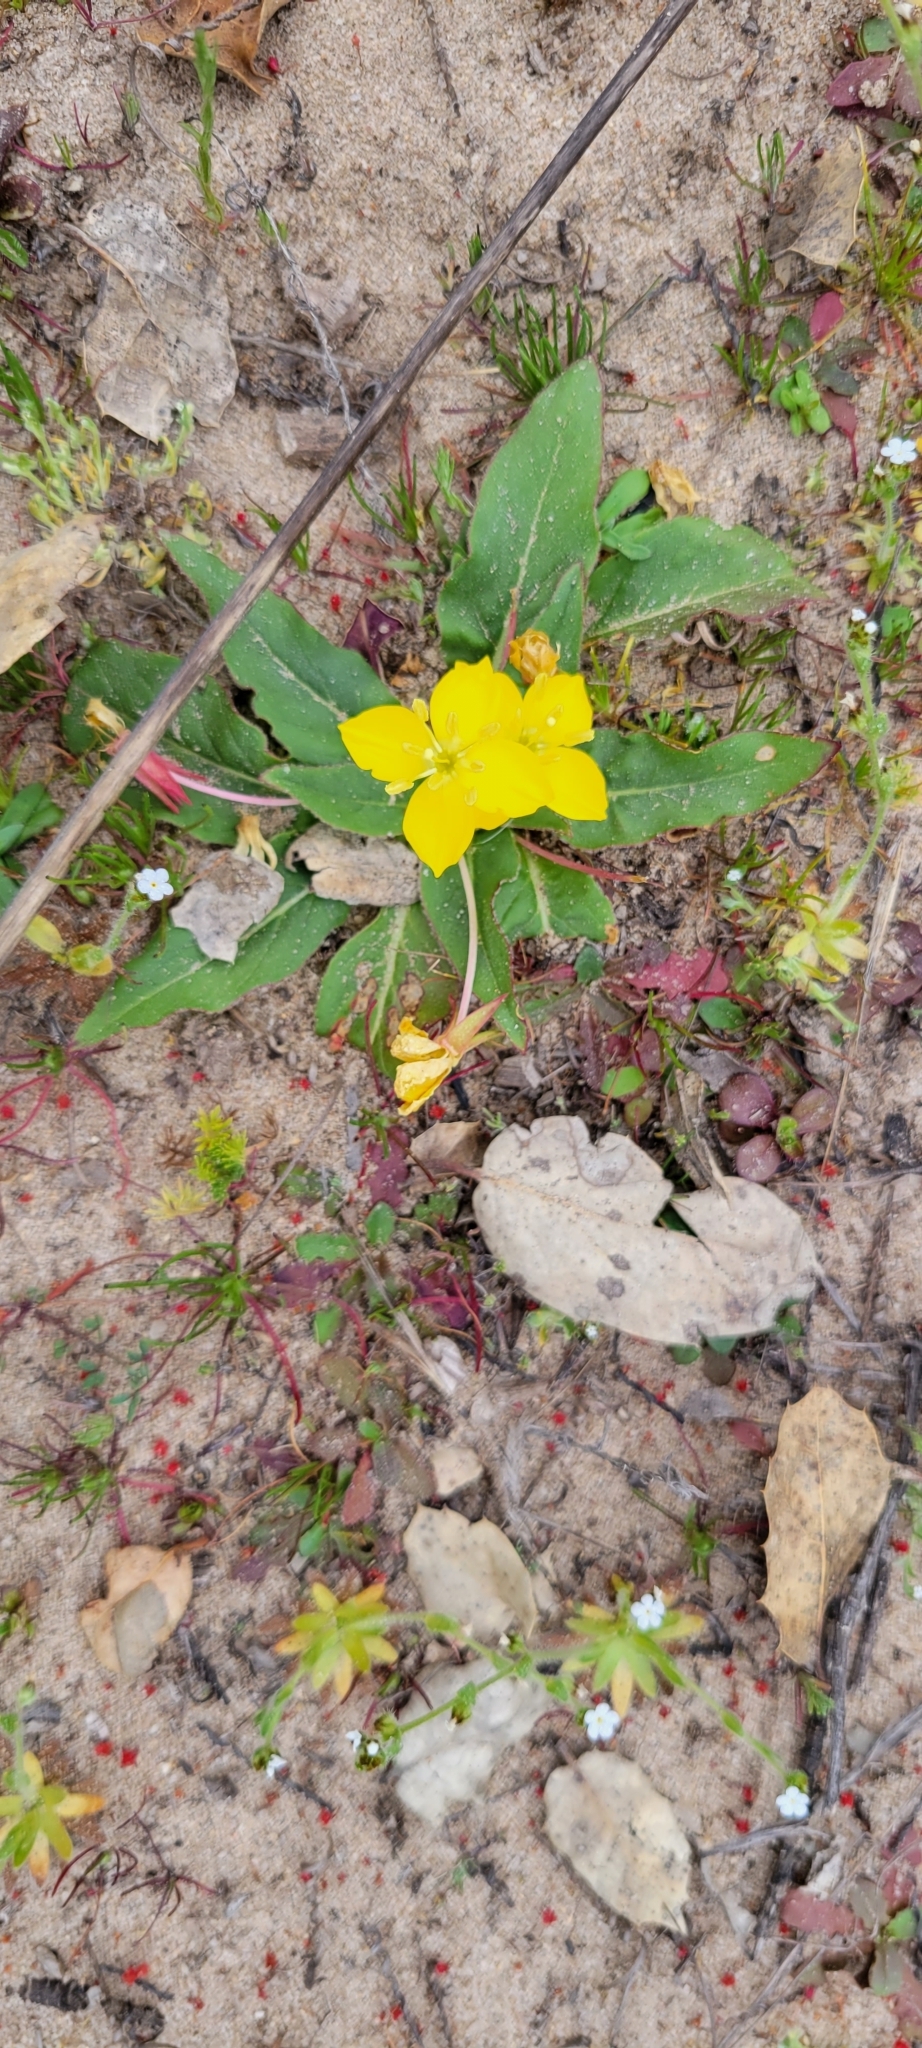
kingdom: Plantae
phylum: Tracheophyta
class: Magnoliopsida
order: Myrtales
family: Onagraceae
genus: Taraxia
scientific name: Taraxia ovata
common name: Goldeneggs
